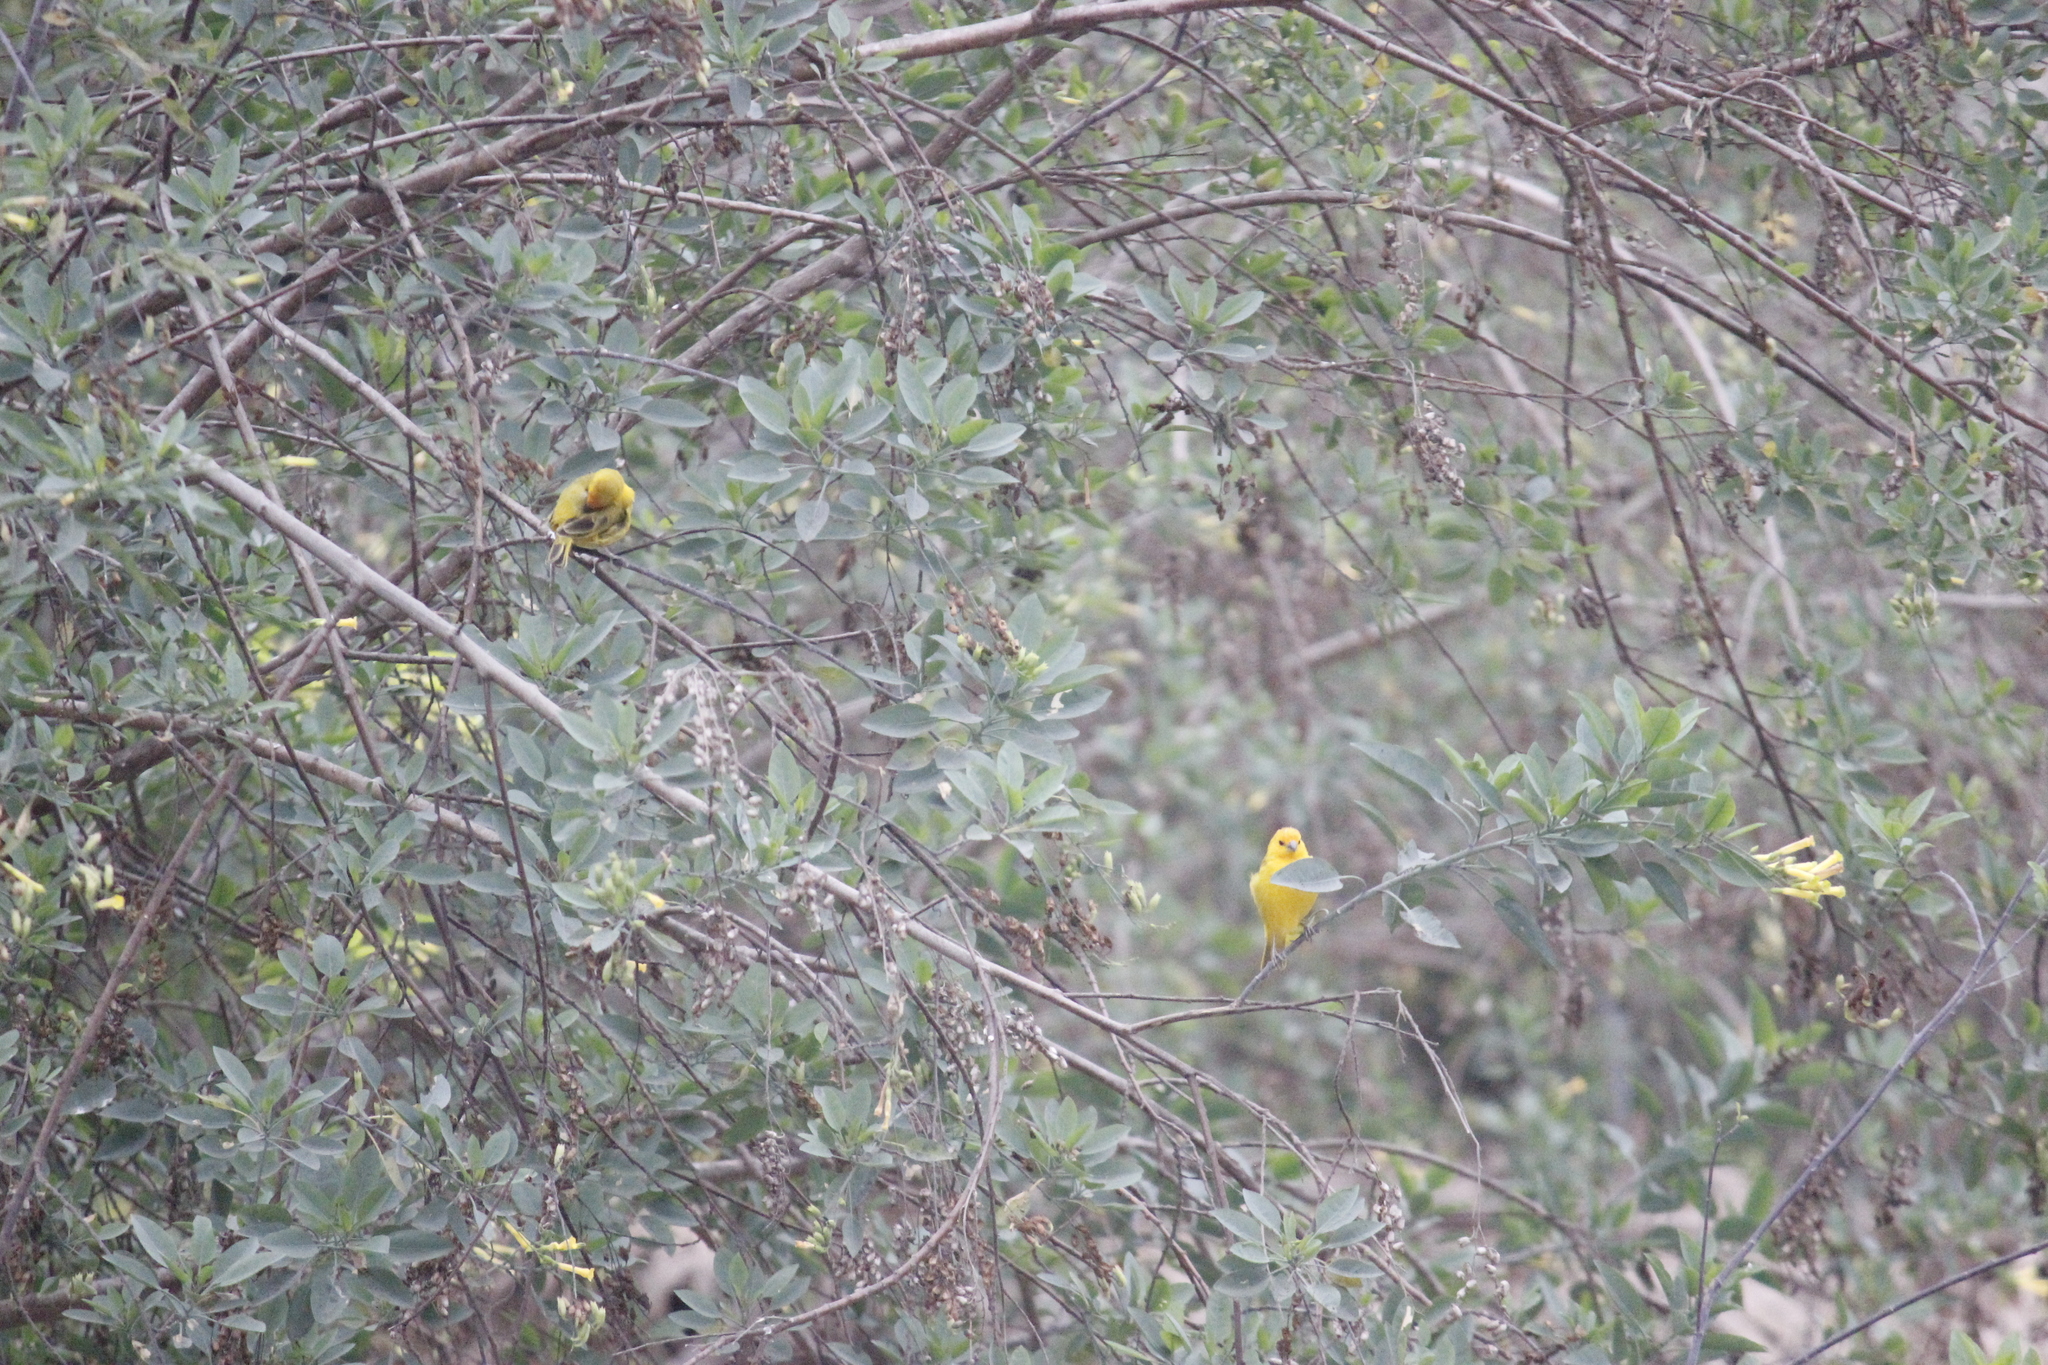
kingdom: Animalia
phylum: Chordata
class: Aves
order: Passeriformes
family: Thraupidae
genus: Sicalis
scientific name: Sicalis flaveola
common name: Saffron finch
